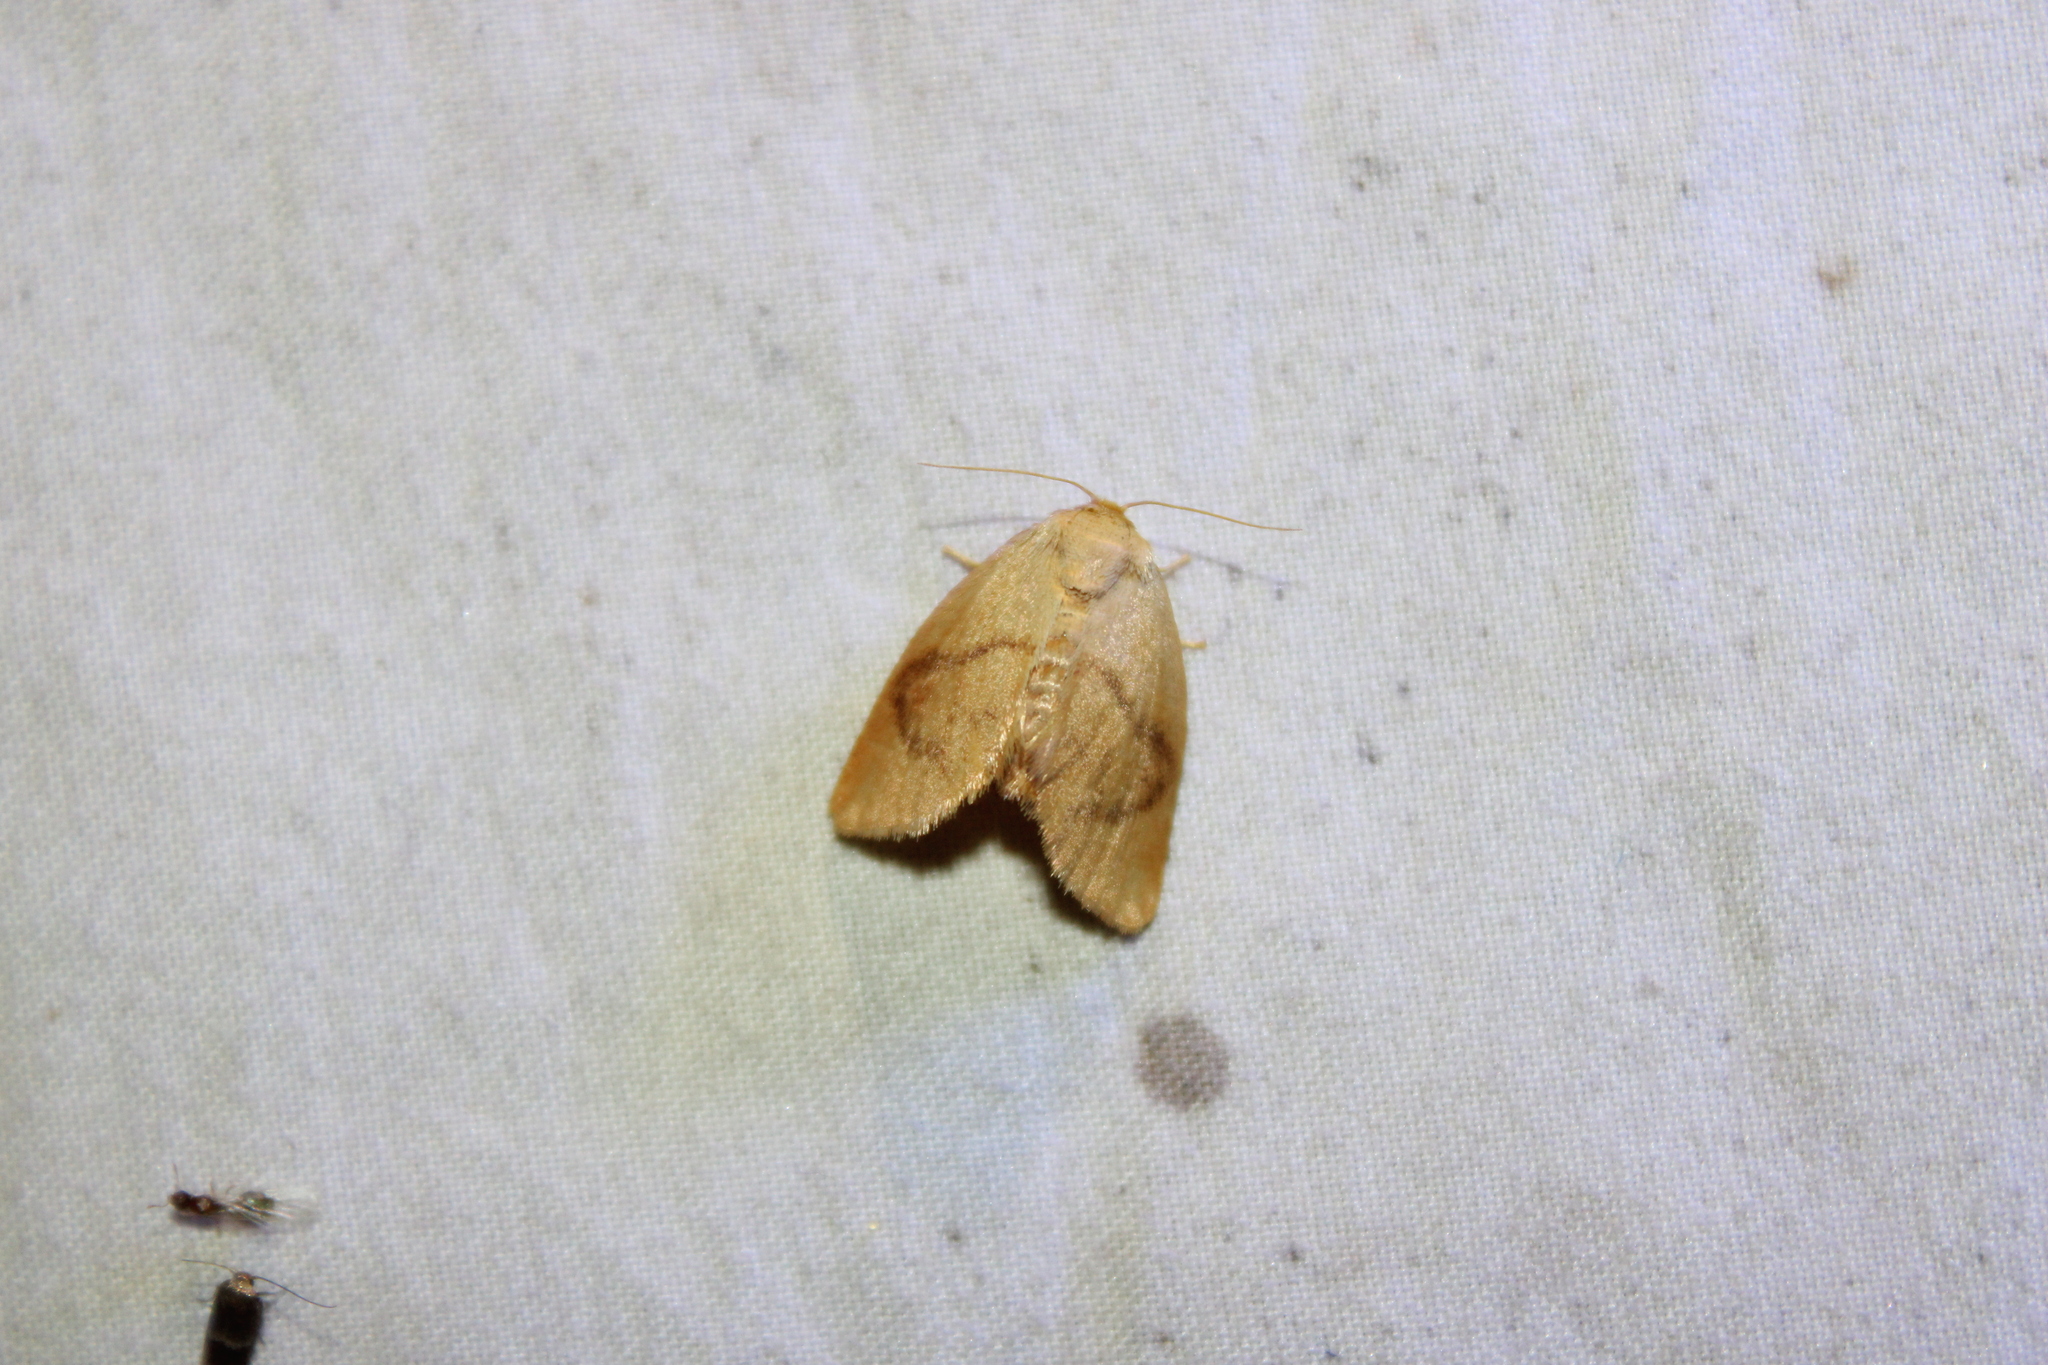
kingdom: Animalia
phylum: Arthropoda
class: Insecta
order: Lepidoptera
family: Limacodidae
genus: Tortricidia
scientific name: Tortricidia flexuosa
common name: Abbreviated button slug moth
